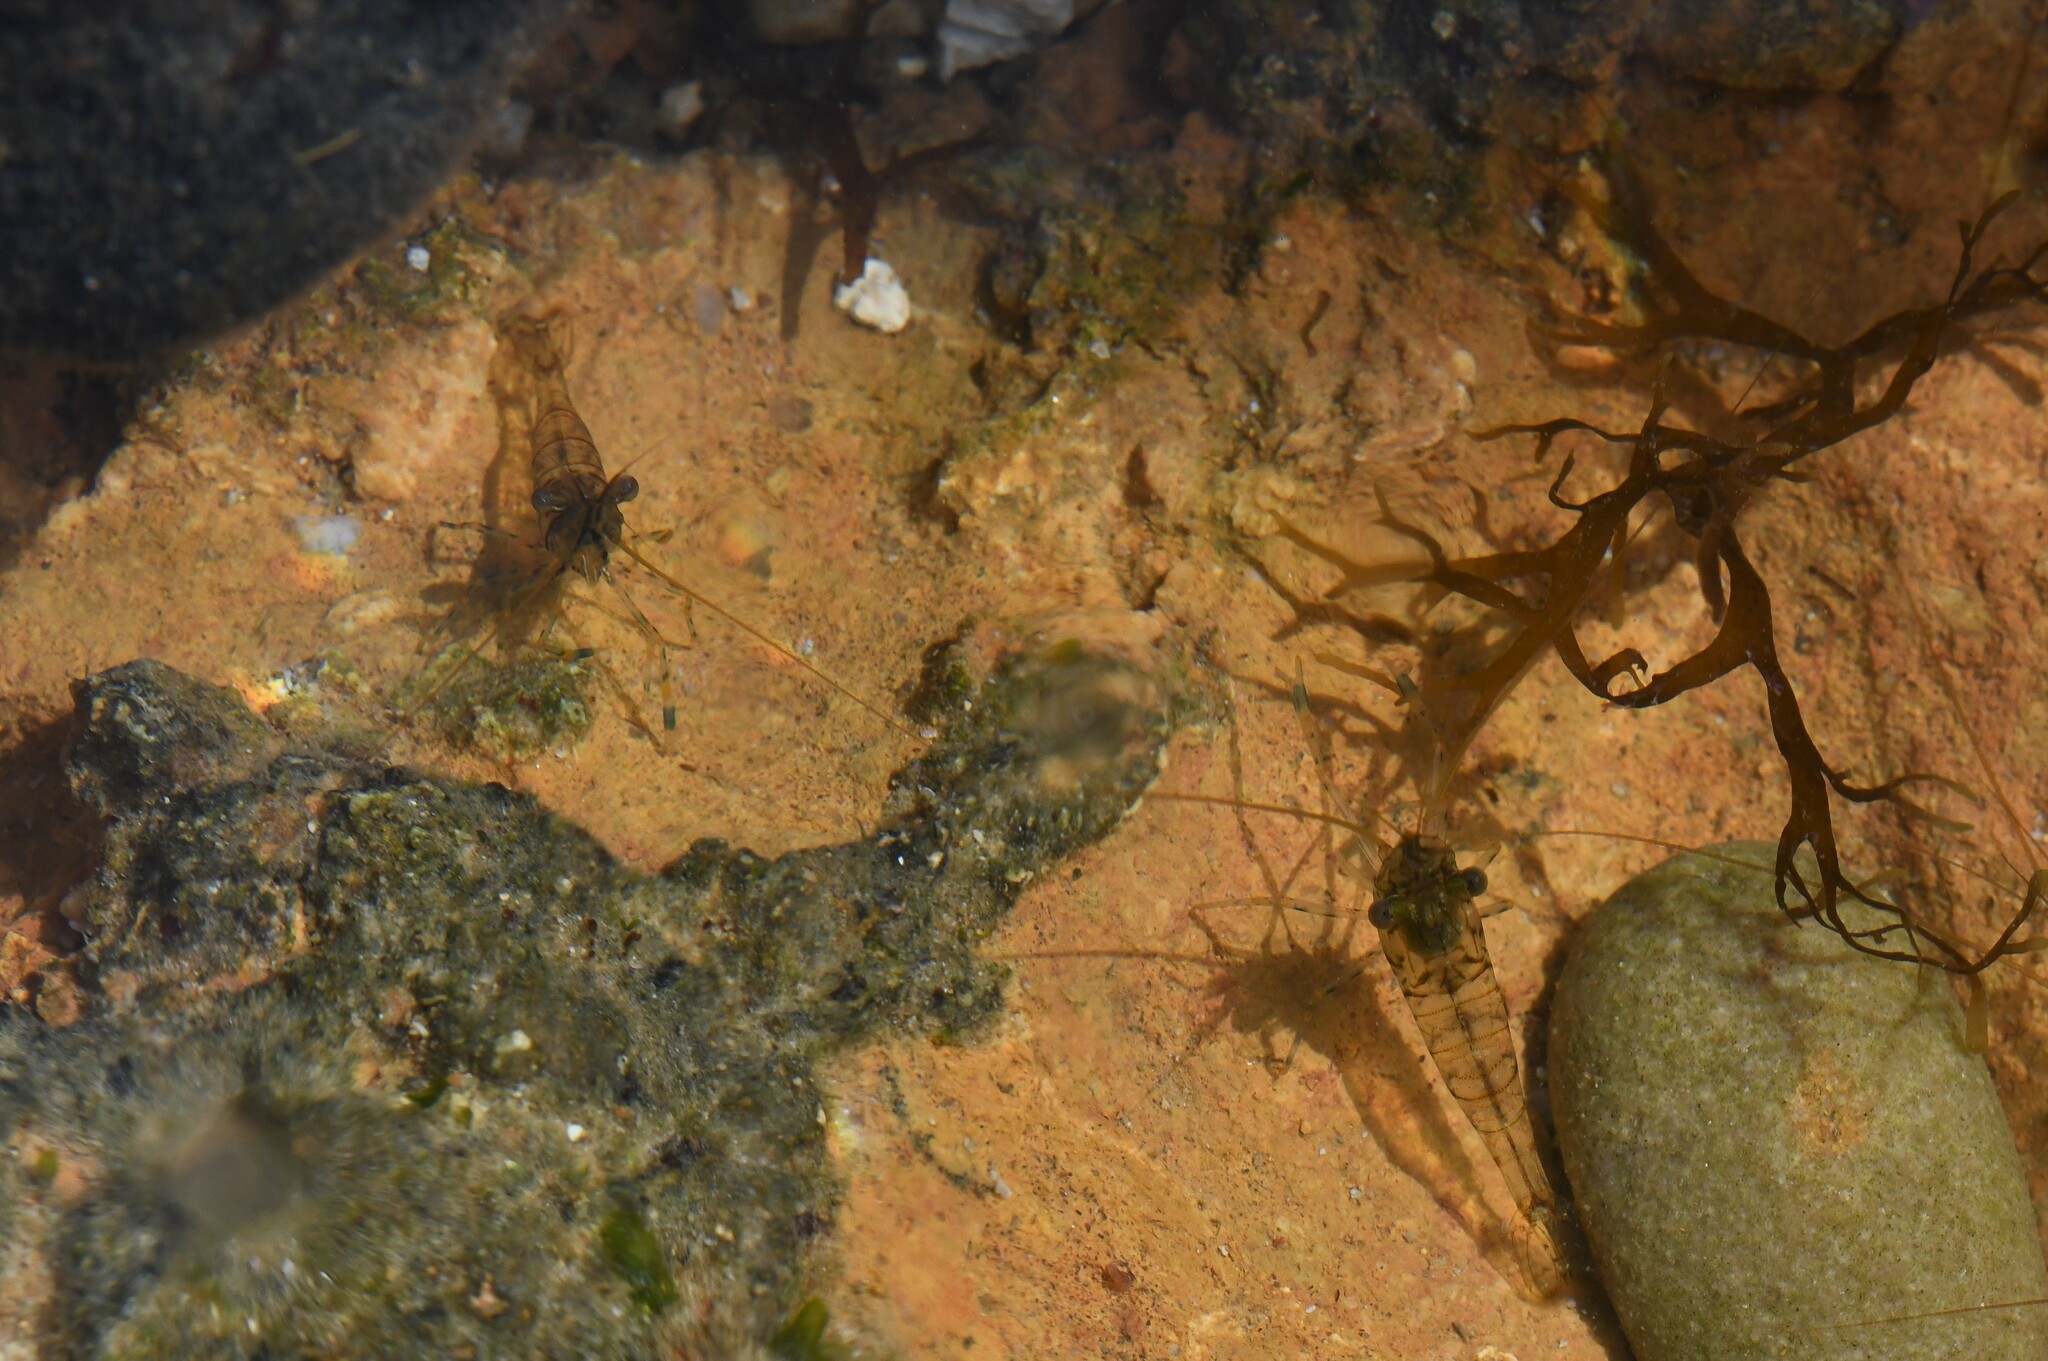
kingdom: Animalia
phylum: Arthropoda
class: Malacostraca
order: Decapoda
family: Palaemonidae
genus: Palaemon
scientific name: Palaemon elegans
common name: Grass prawm
